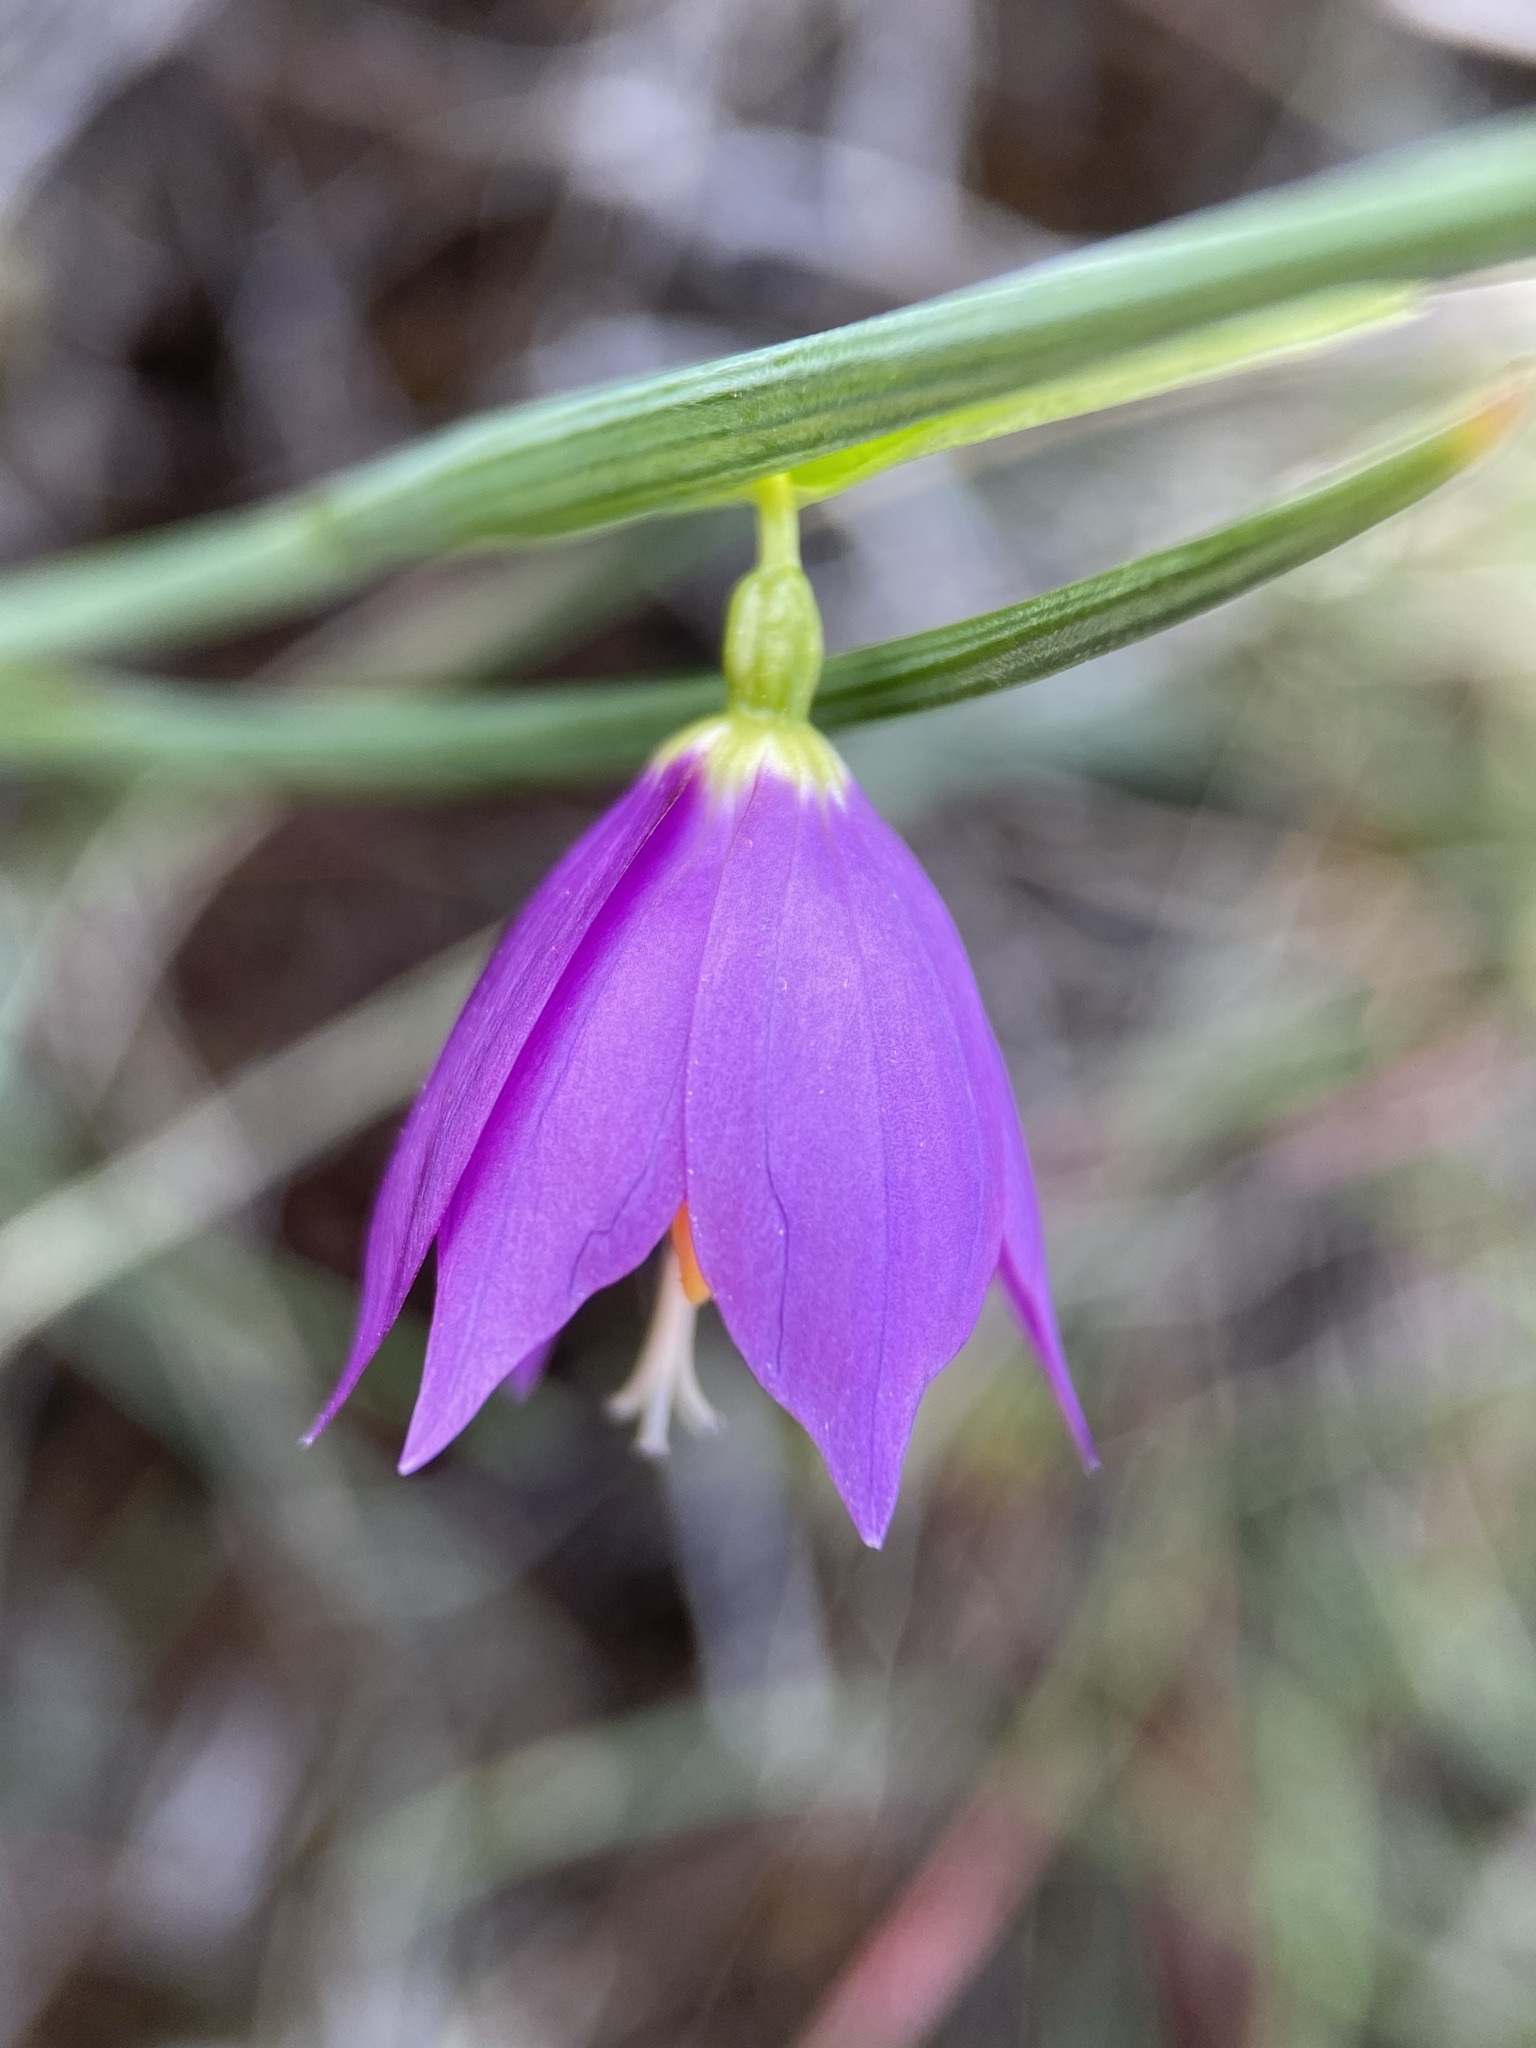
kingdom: Plantae
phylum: Tracheophyta
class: Liliopsida
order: Asparagales
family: Iridaceae
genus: Olsynium
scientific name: Olsynium douglasii
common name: Douglas' grasswidow
